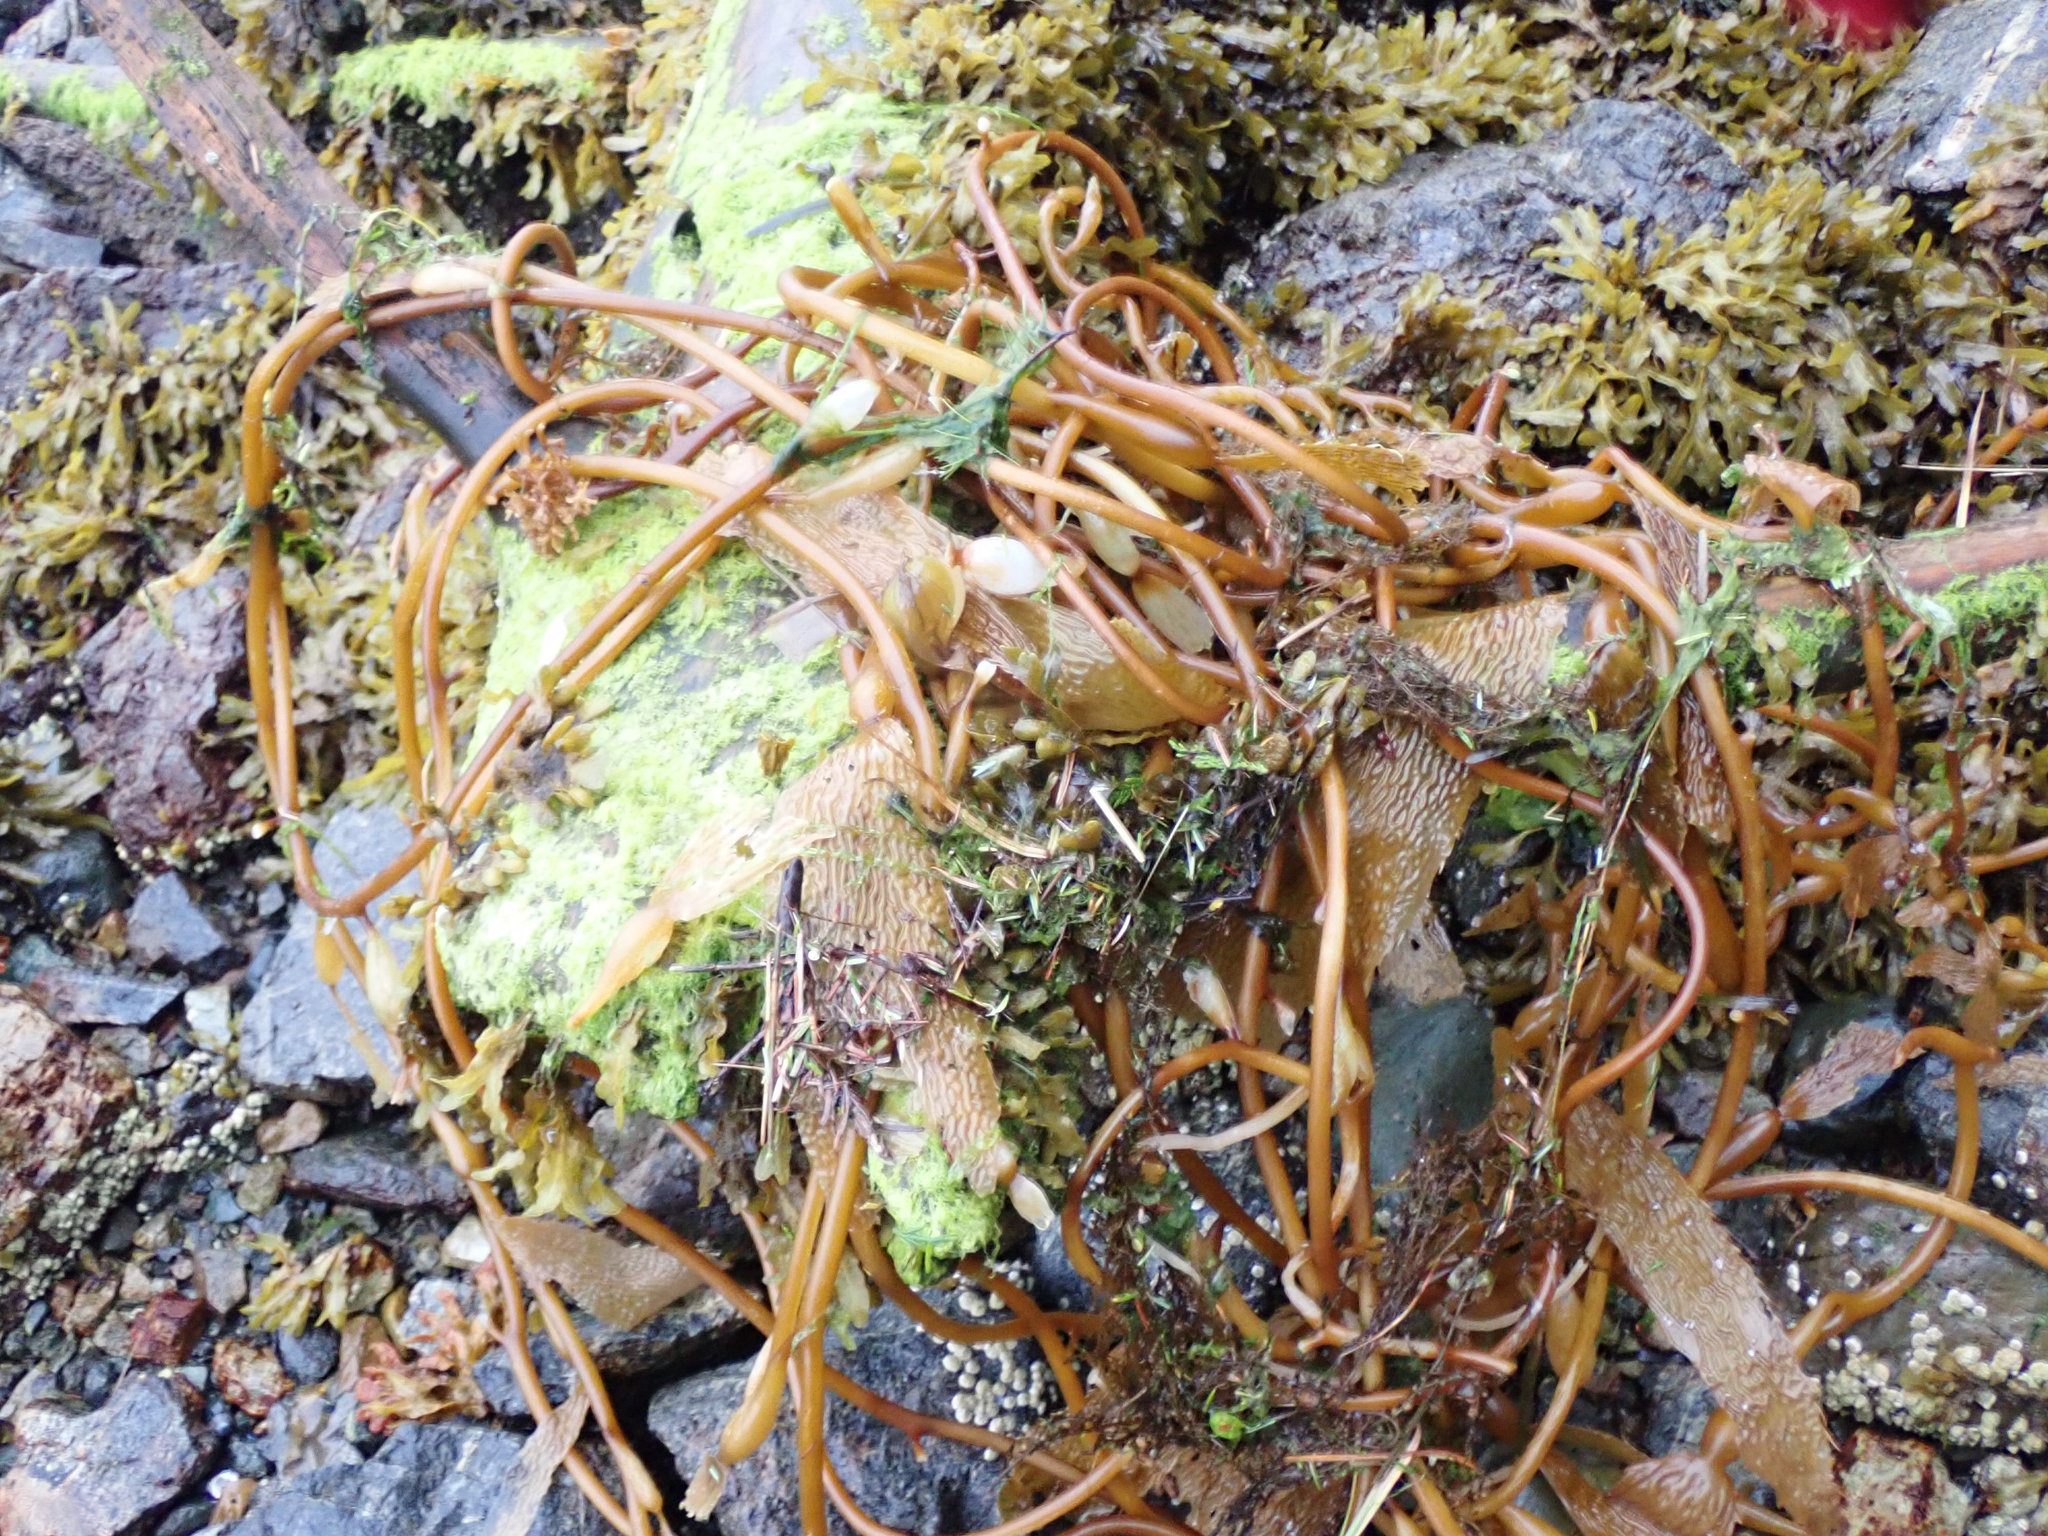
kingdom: Chromista
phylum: Ochrophyta
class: Phaeophyceae
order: Laminariales
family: Laminariaceae
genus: Macrocystis
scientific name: Macrocystis pyrifera
